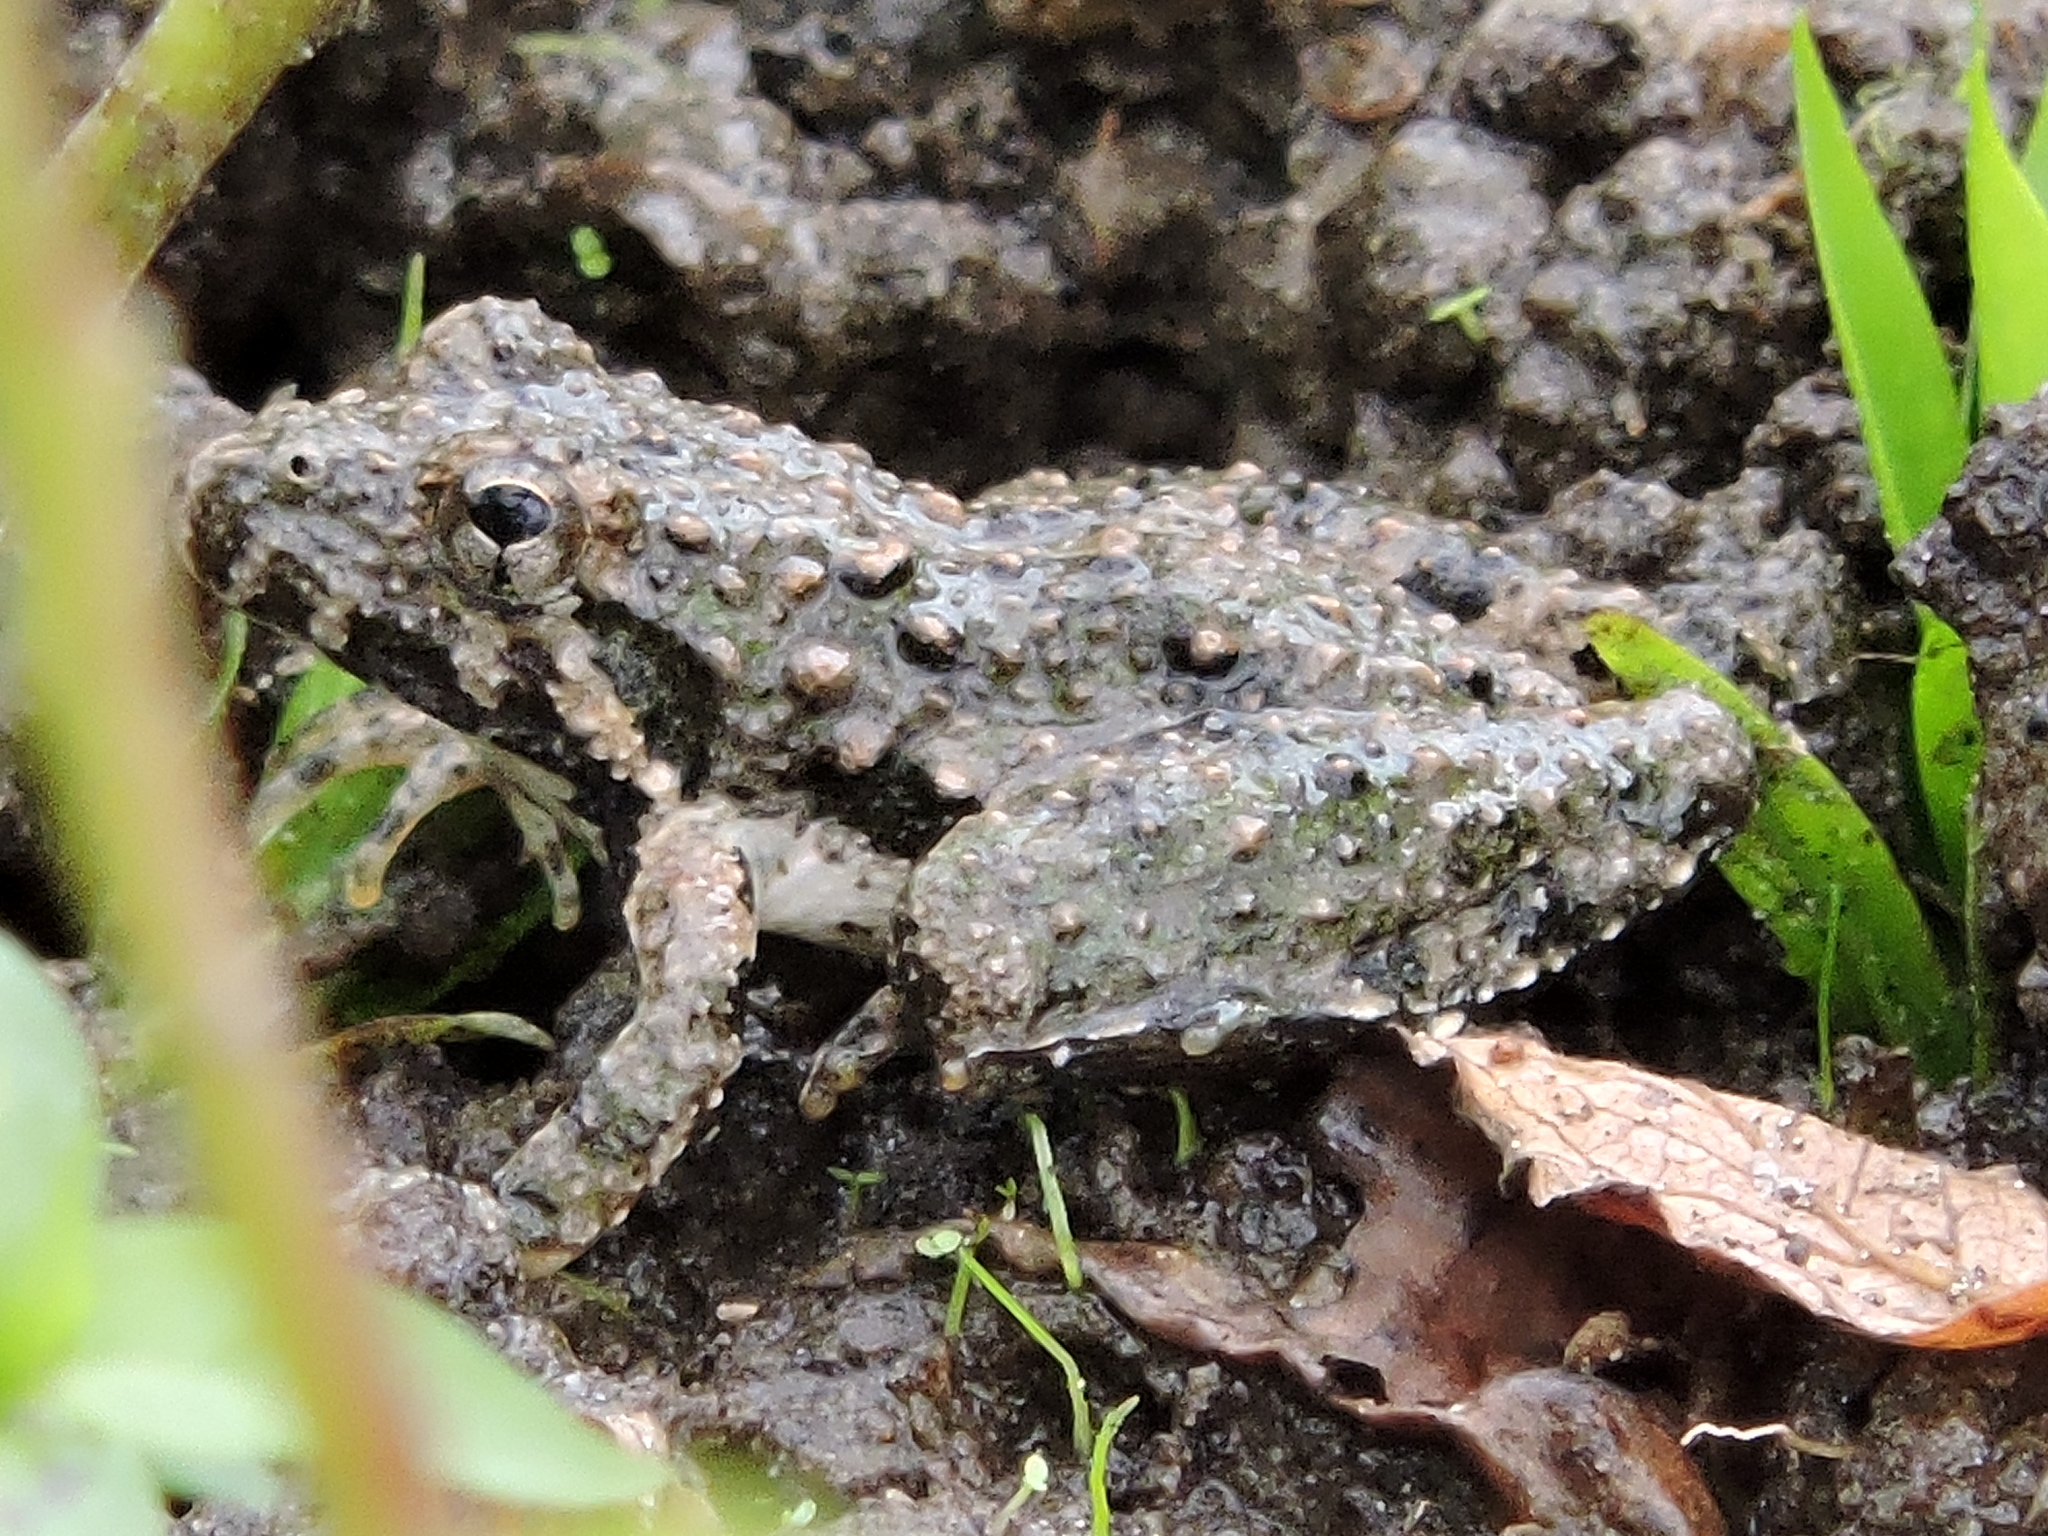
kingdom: Animalia
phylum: Chordata
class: Amphibia
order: Anura
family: Hylidae
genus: Acris
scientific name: Acris blanchardi
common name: Blanchard's cricket frog
